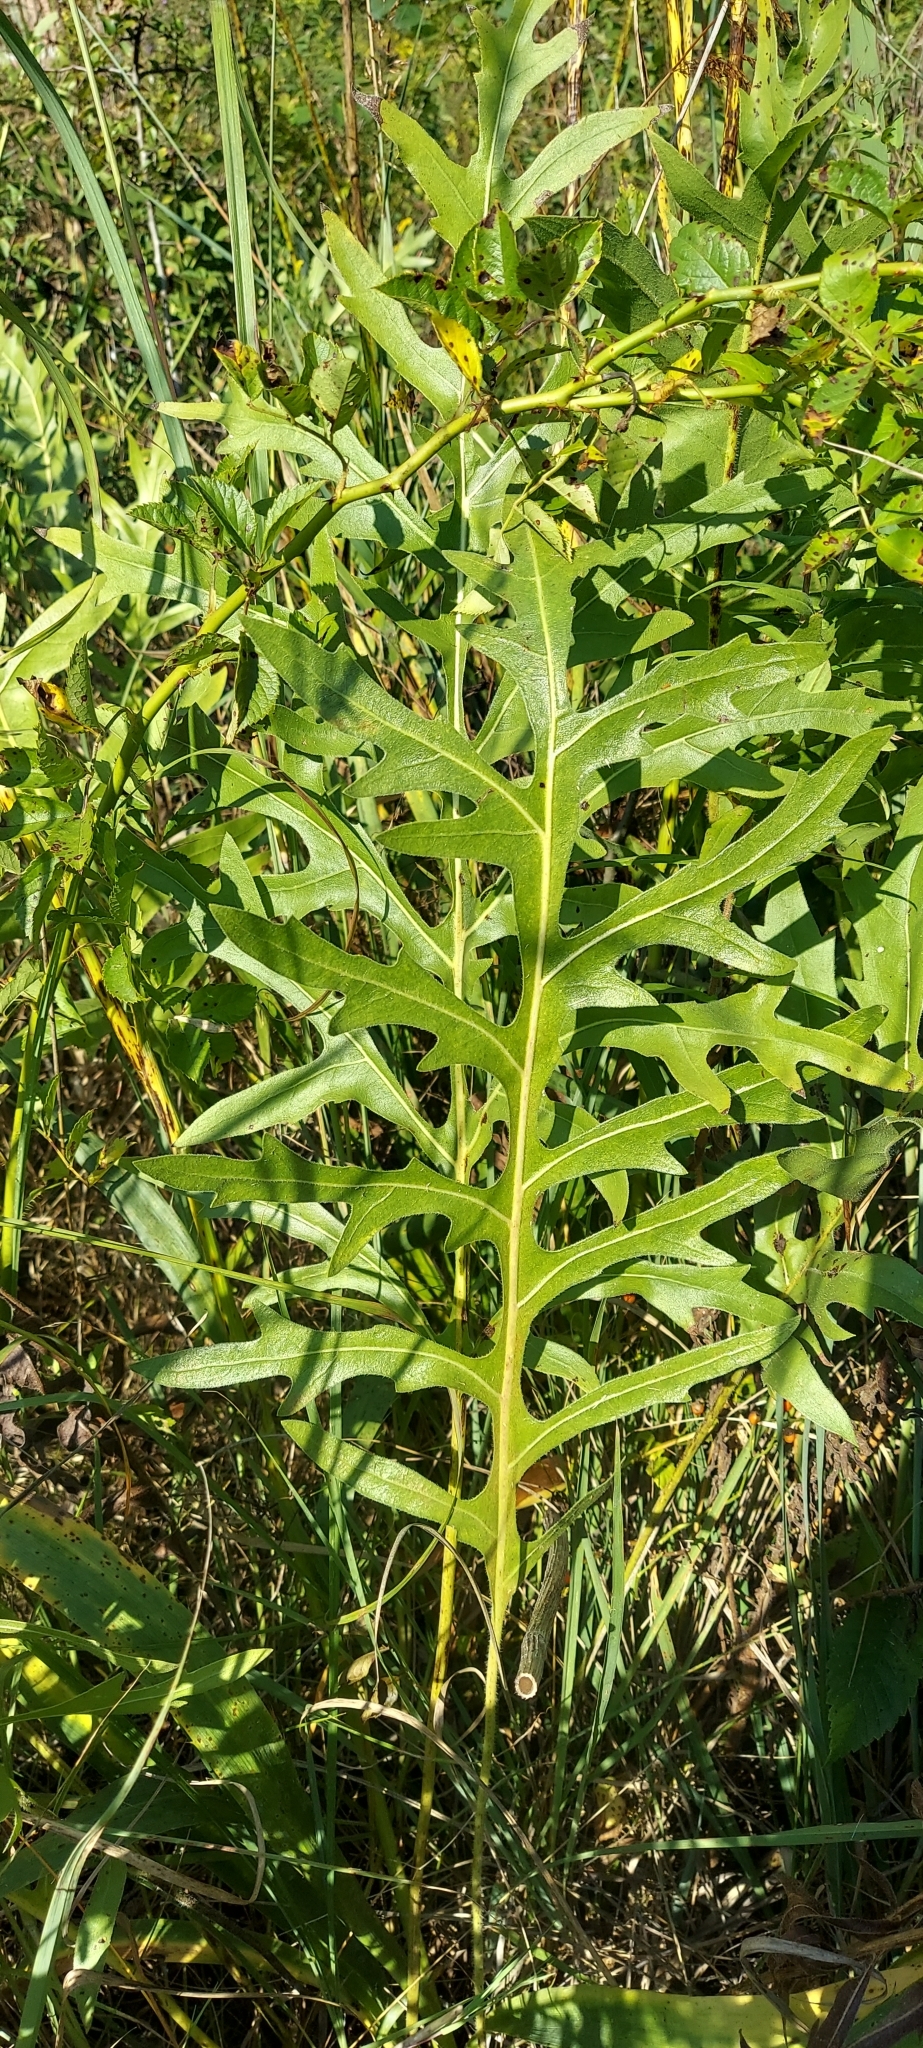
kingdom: Plantae
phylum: Tracheophyta
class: Magnoliopsida
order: Asterales
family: Asteraceae
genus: Silphium
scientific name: Silphium laciniatum
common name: Polarplant
